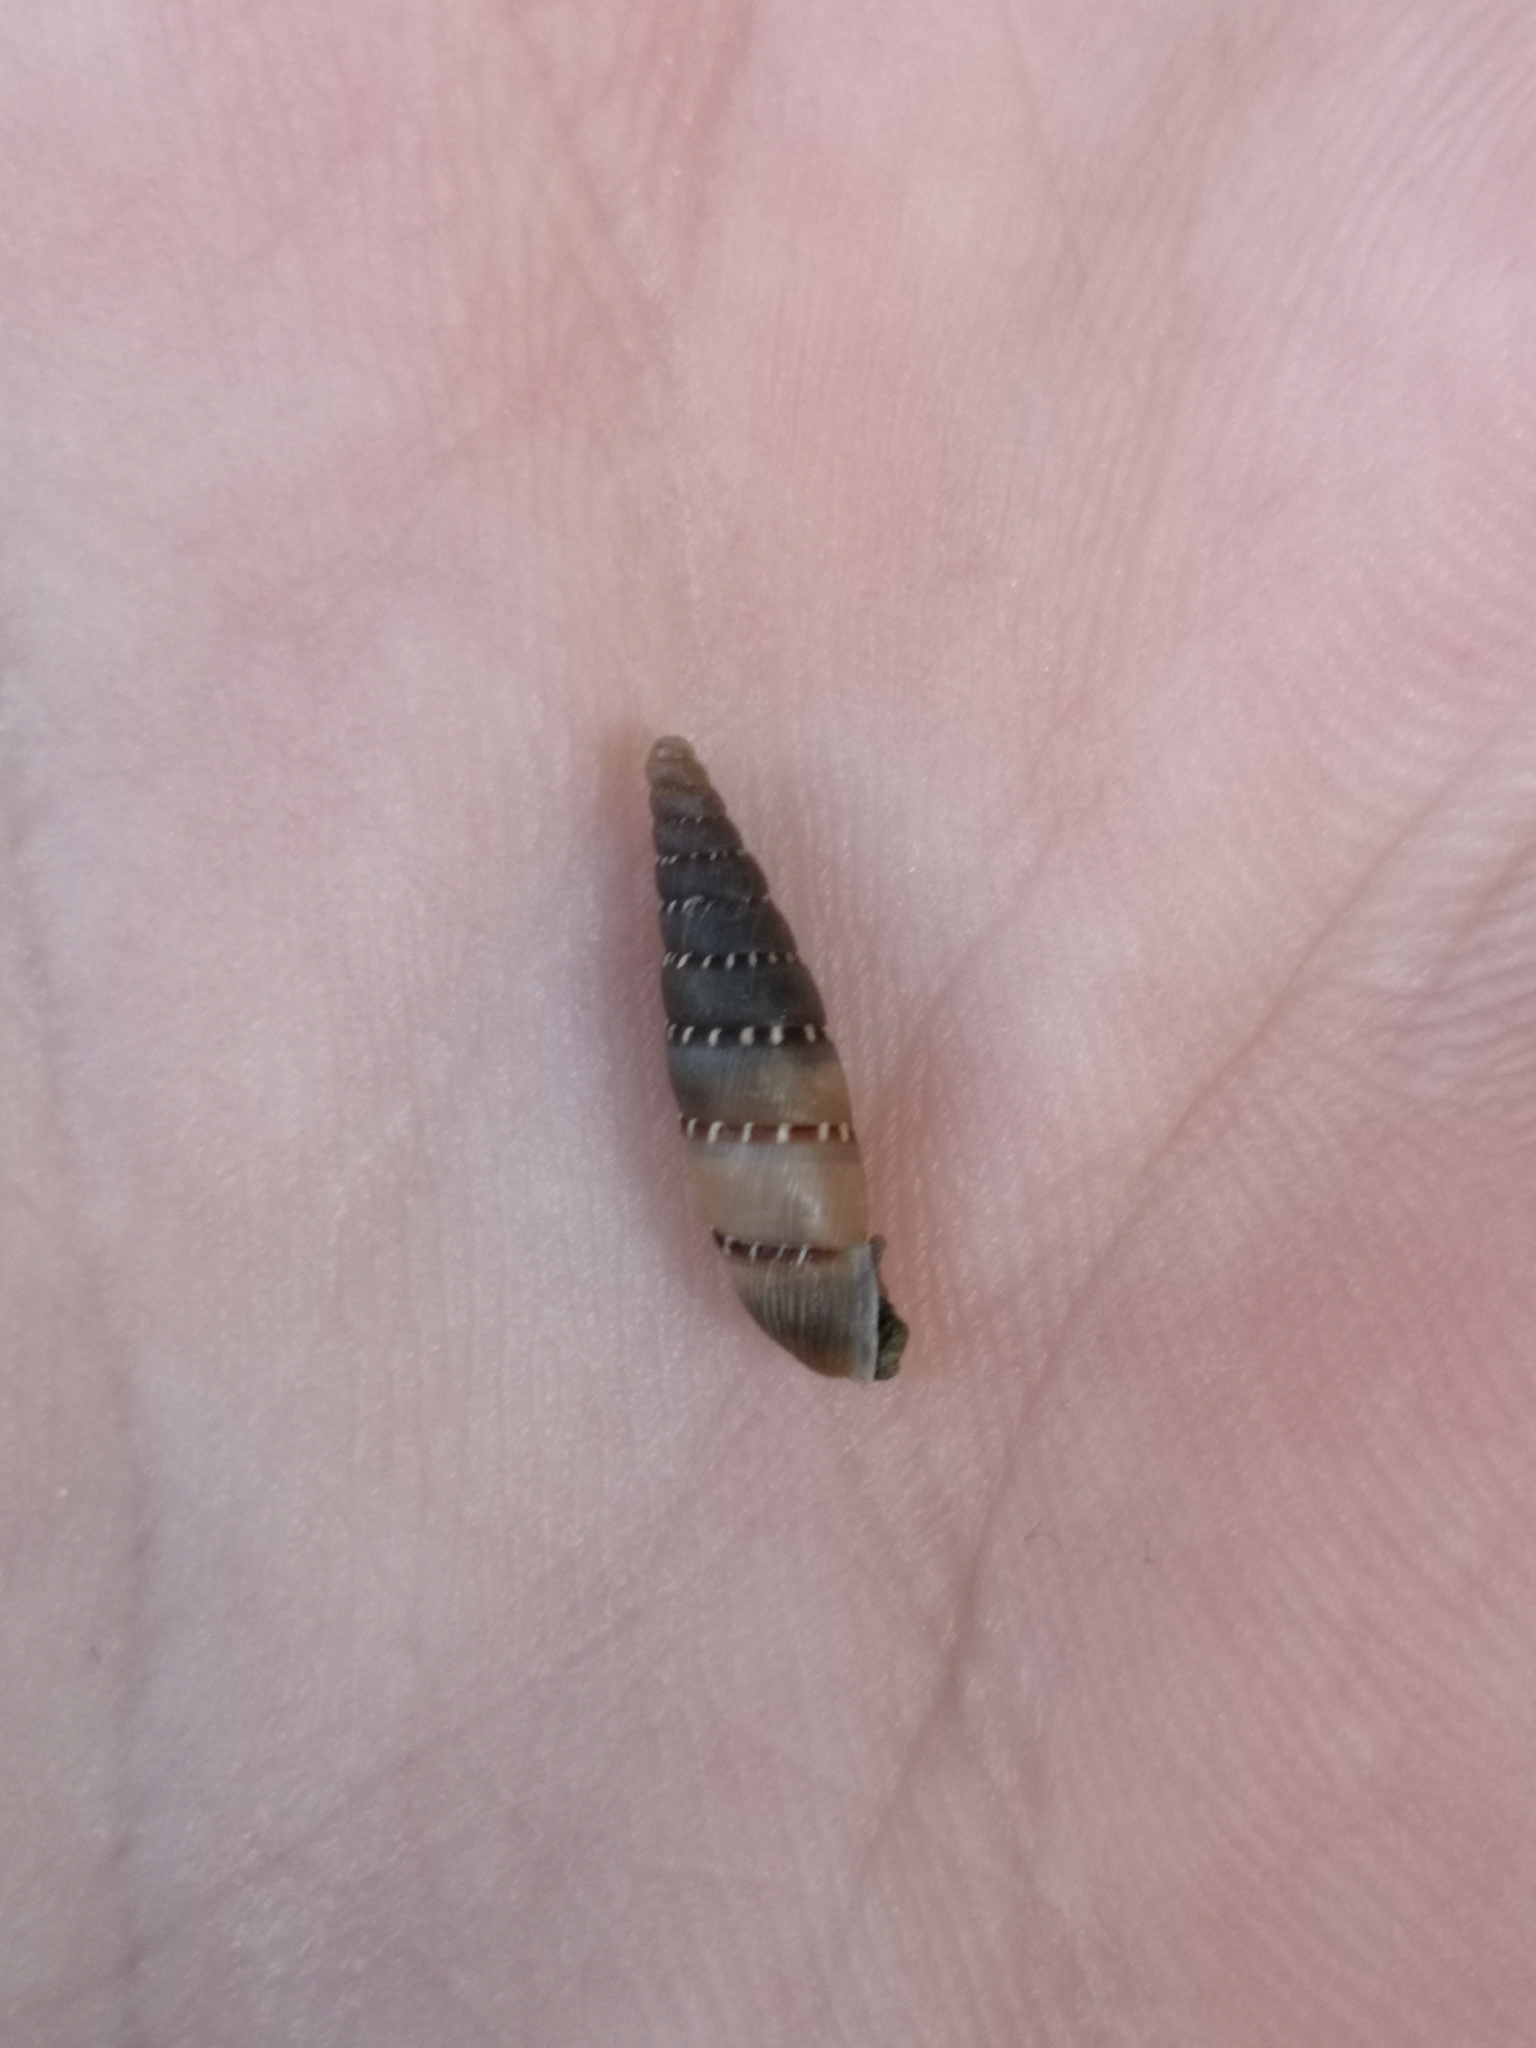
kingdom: Animalia
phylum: Mollusca
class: Gastropoda
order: Stylommatophora
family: Clausiliidae
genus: Papillifera
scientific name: Papillifera papillaris
